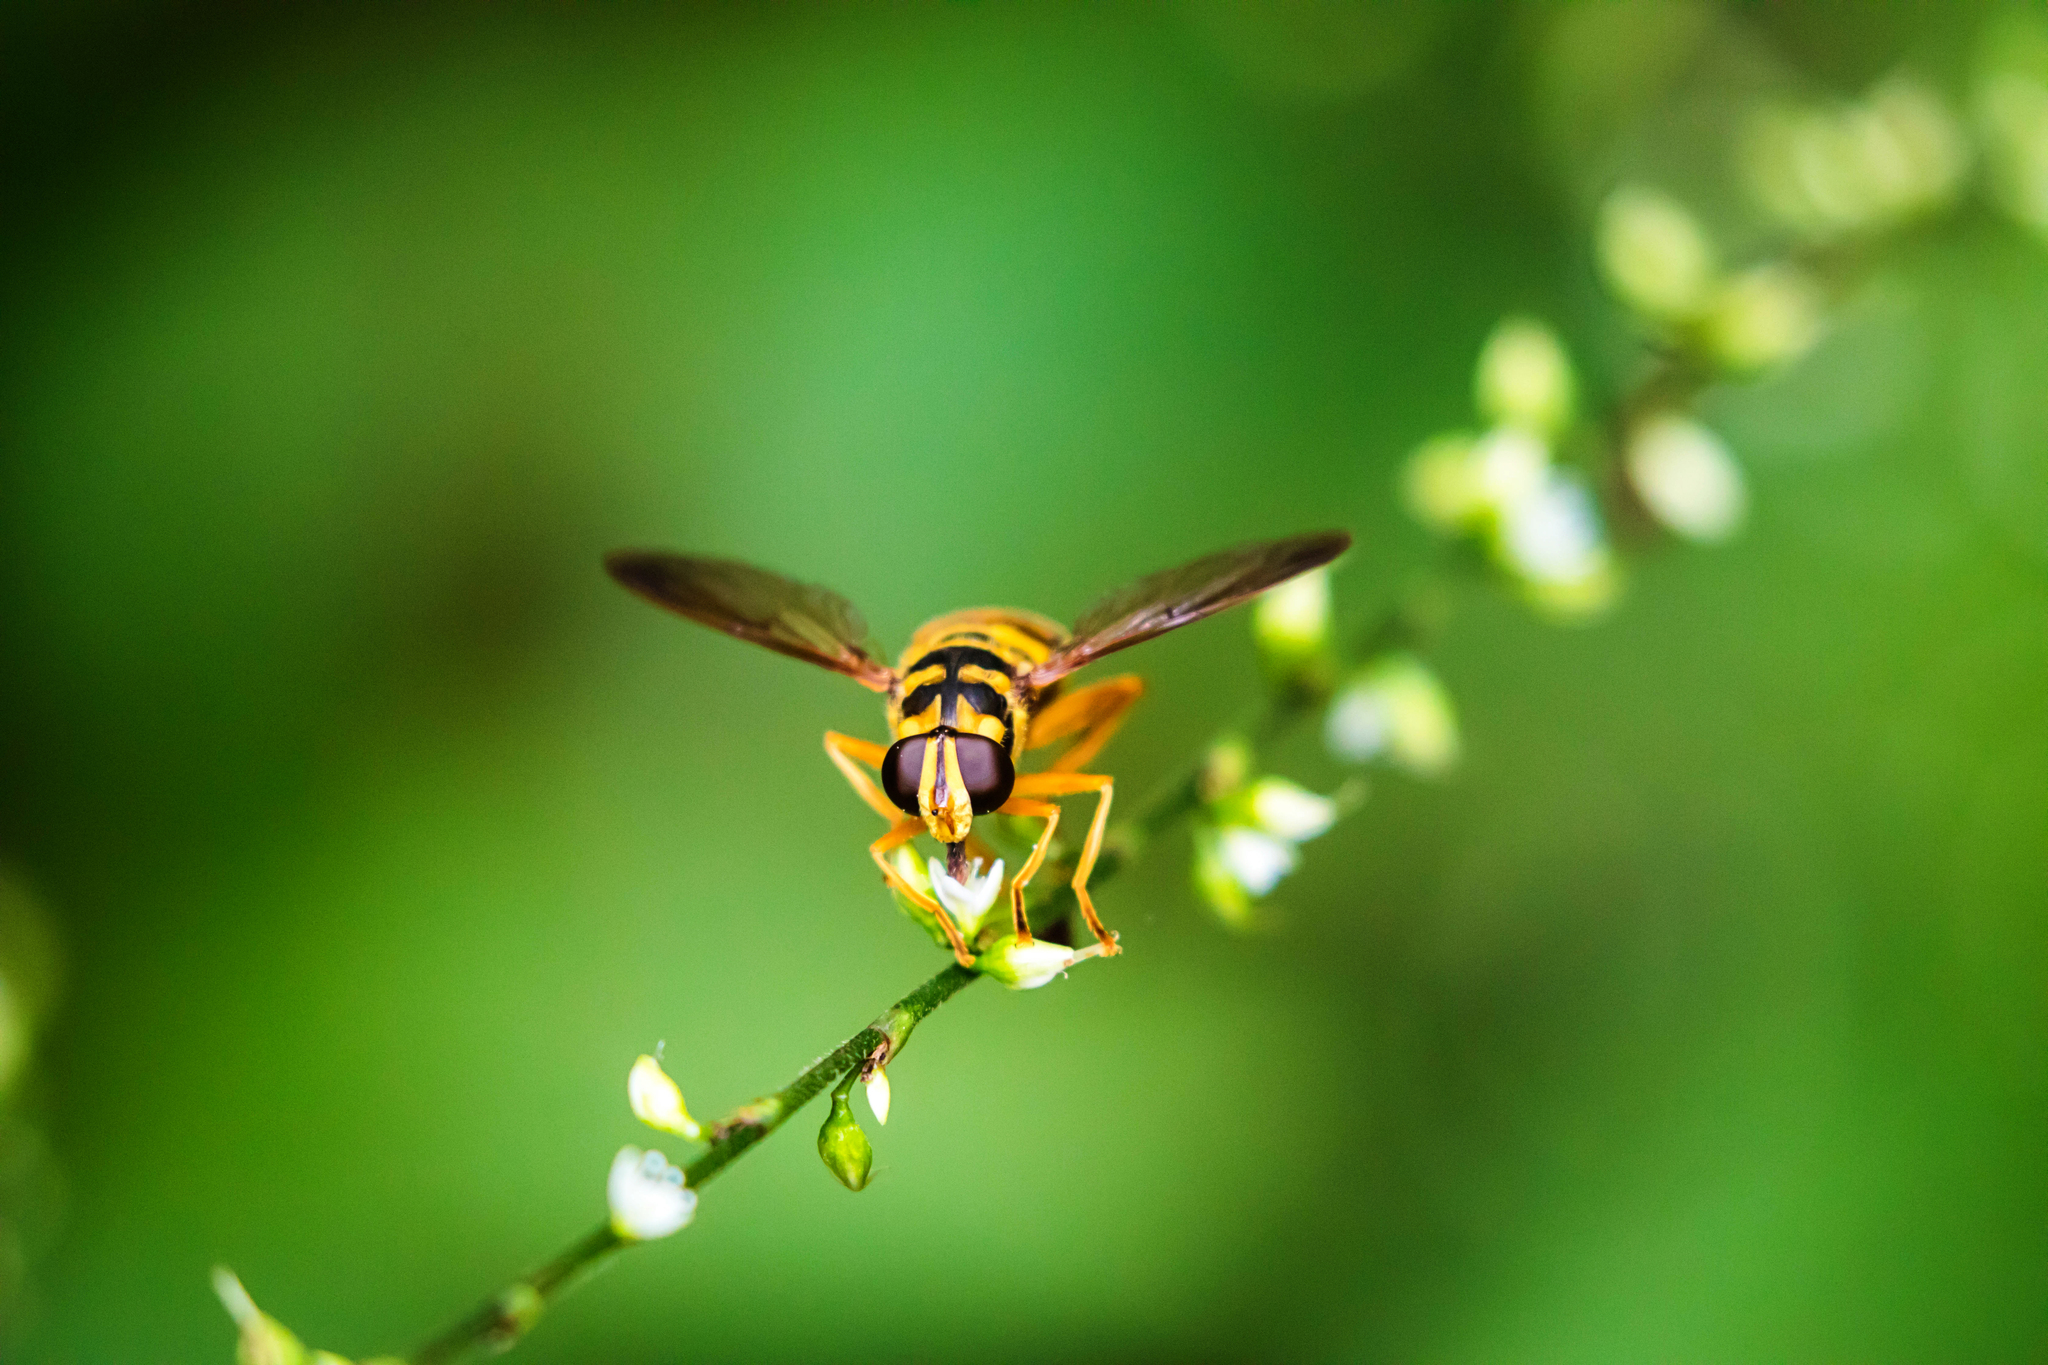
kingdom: Animalia
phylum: Arthropoda
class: Insecta
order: Diptera
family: Syrphidae
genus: Milesia
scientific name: Milesia virginiensis
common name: Virginia giant
